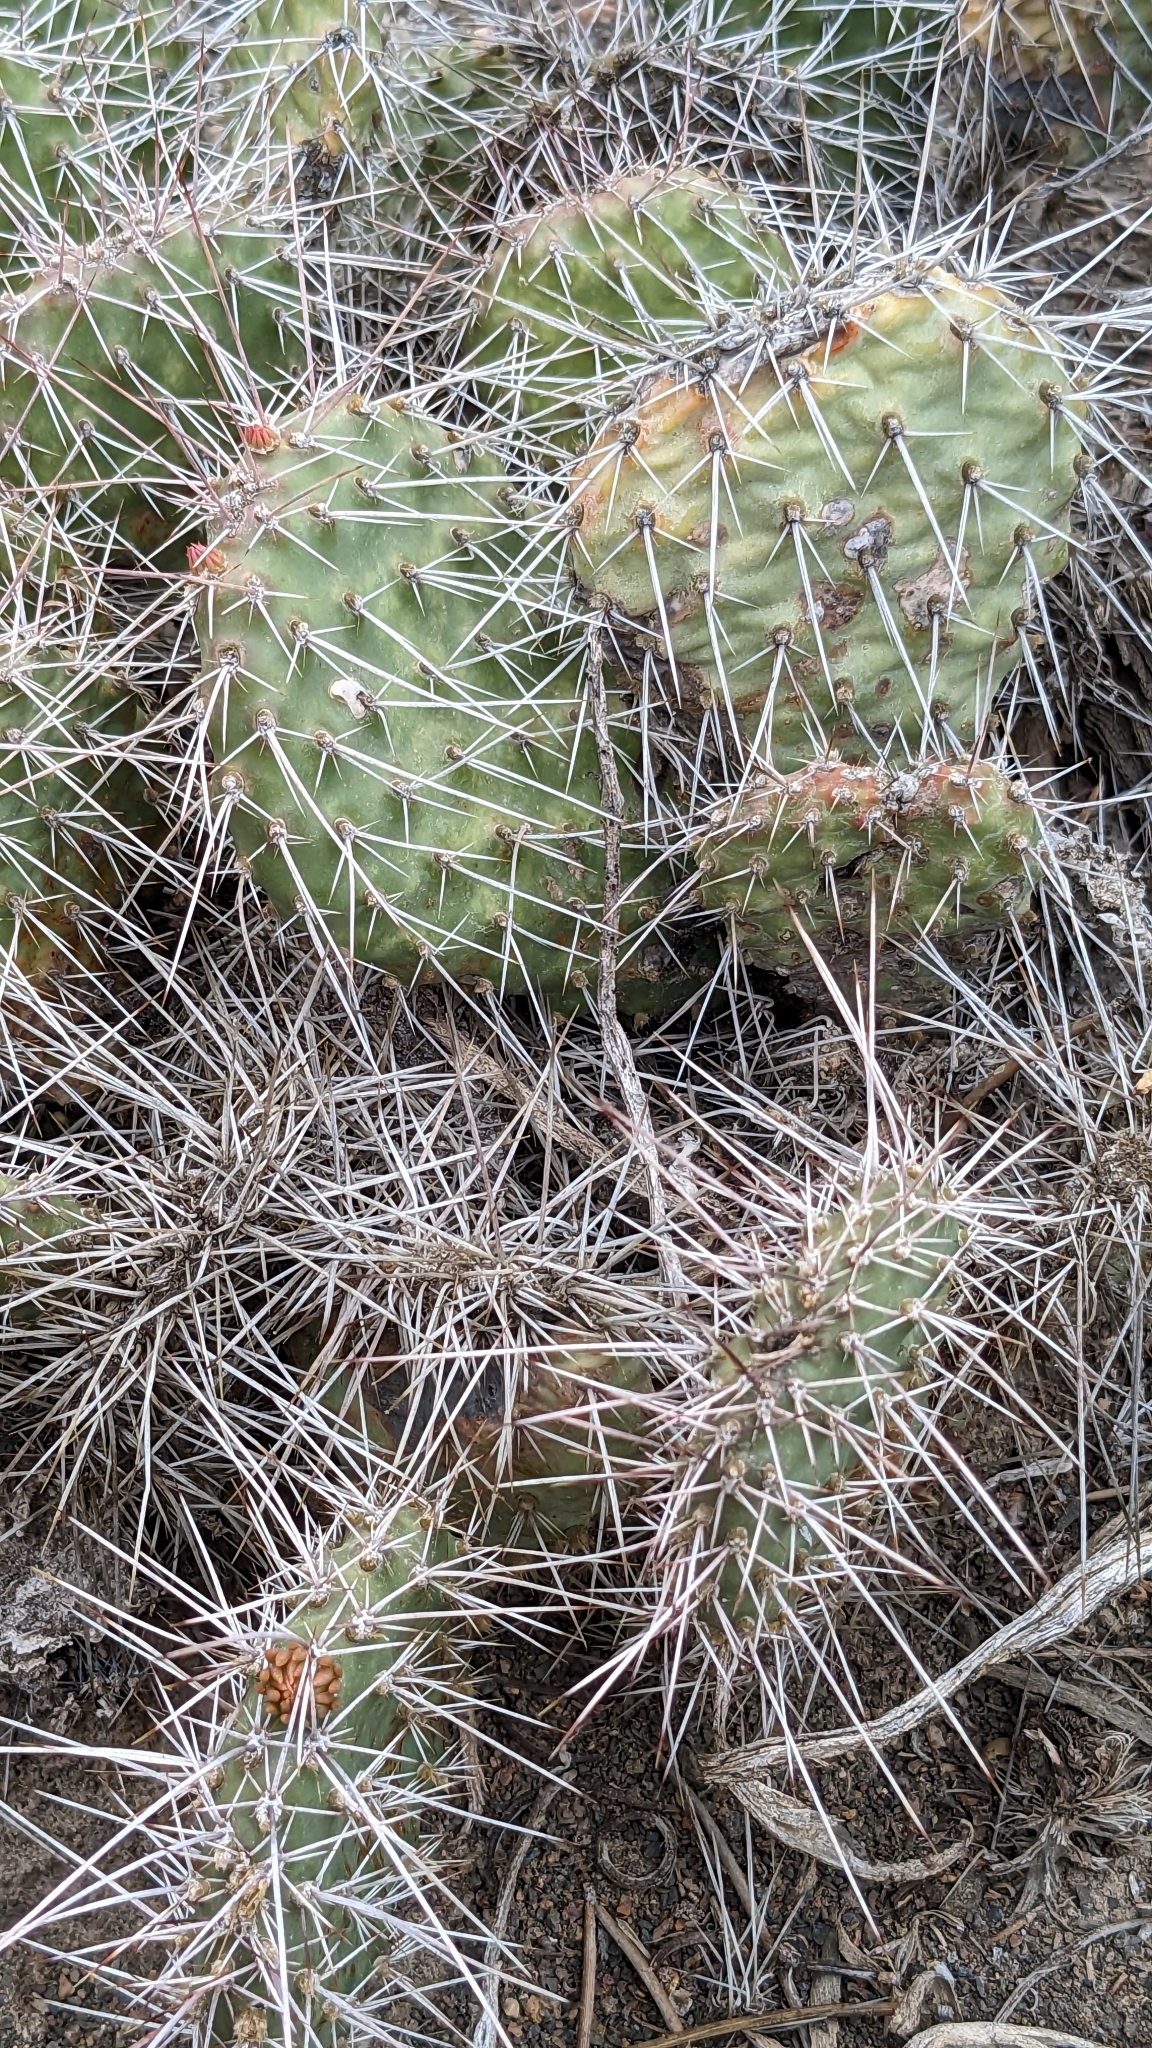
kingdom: Plantae
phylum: Tracheophyta
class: Magnoliopsida
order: Caryophyllales
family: Cactaceae
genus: Opuntia
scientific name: Opuntia polyacantha
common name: Plains prickly-pear
